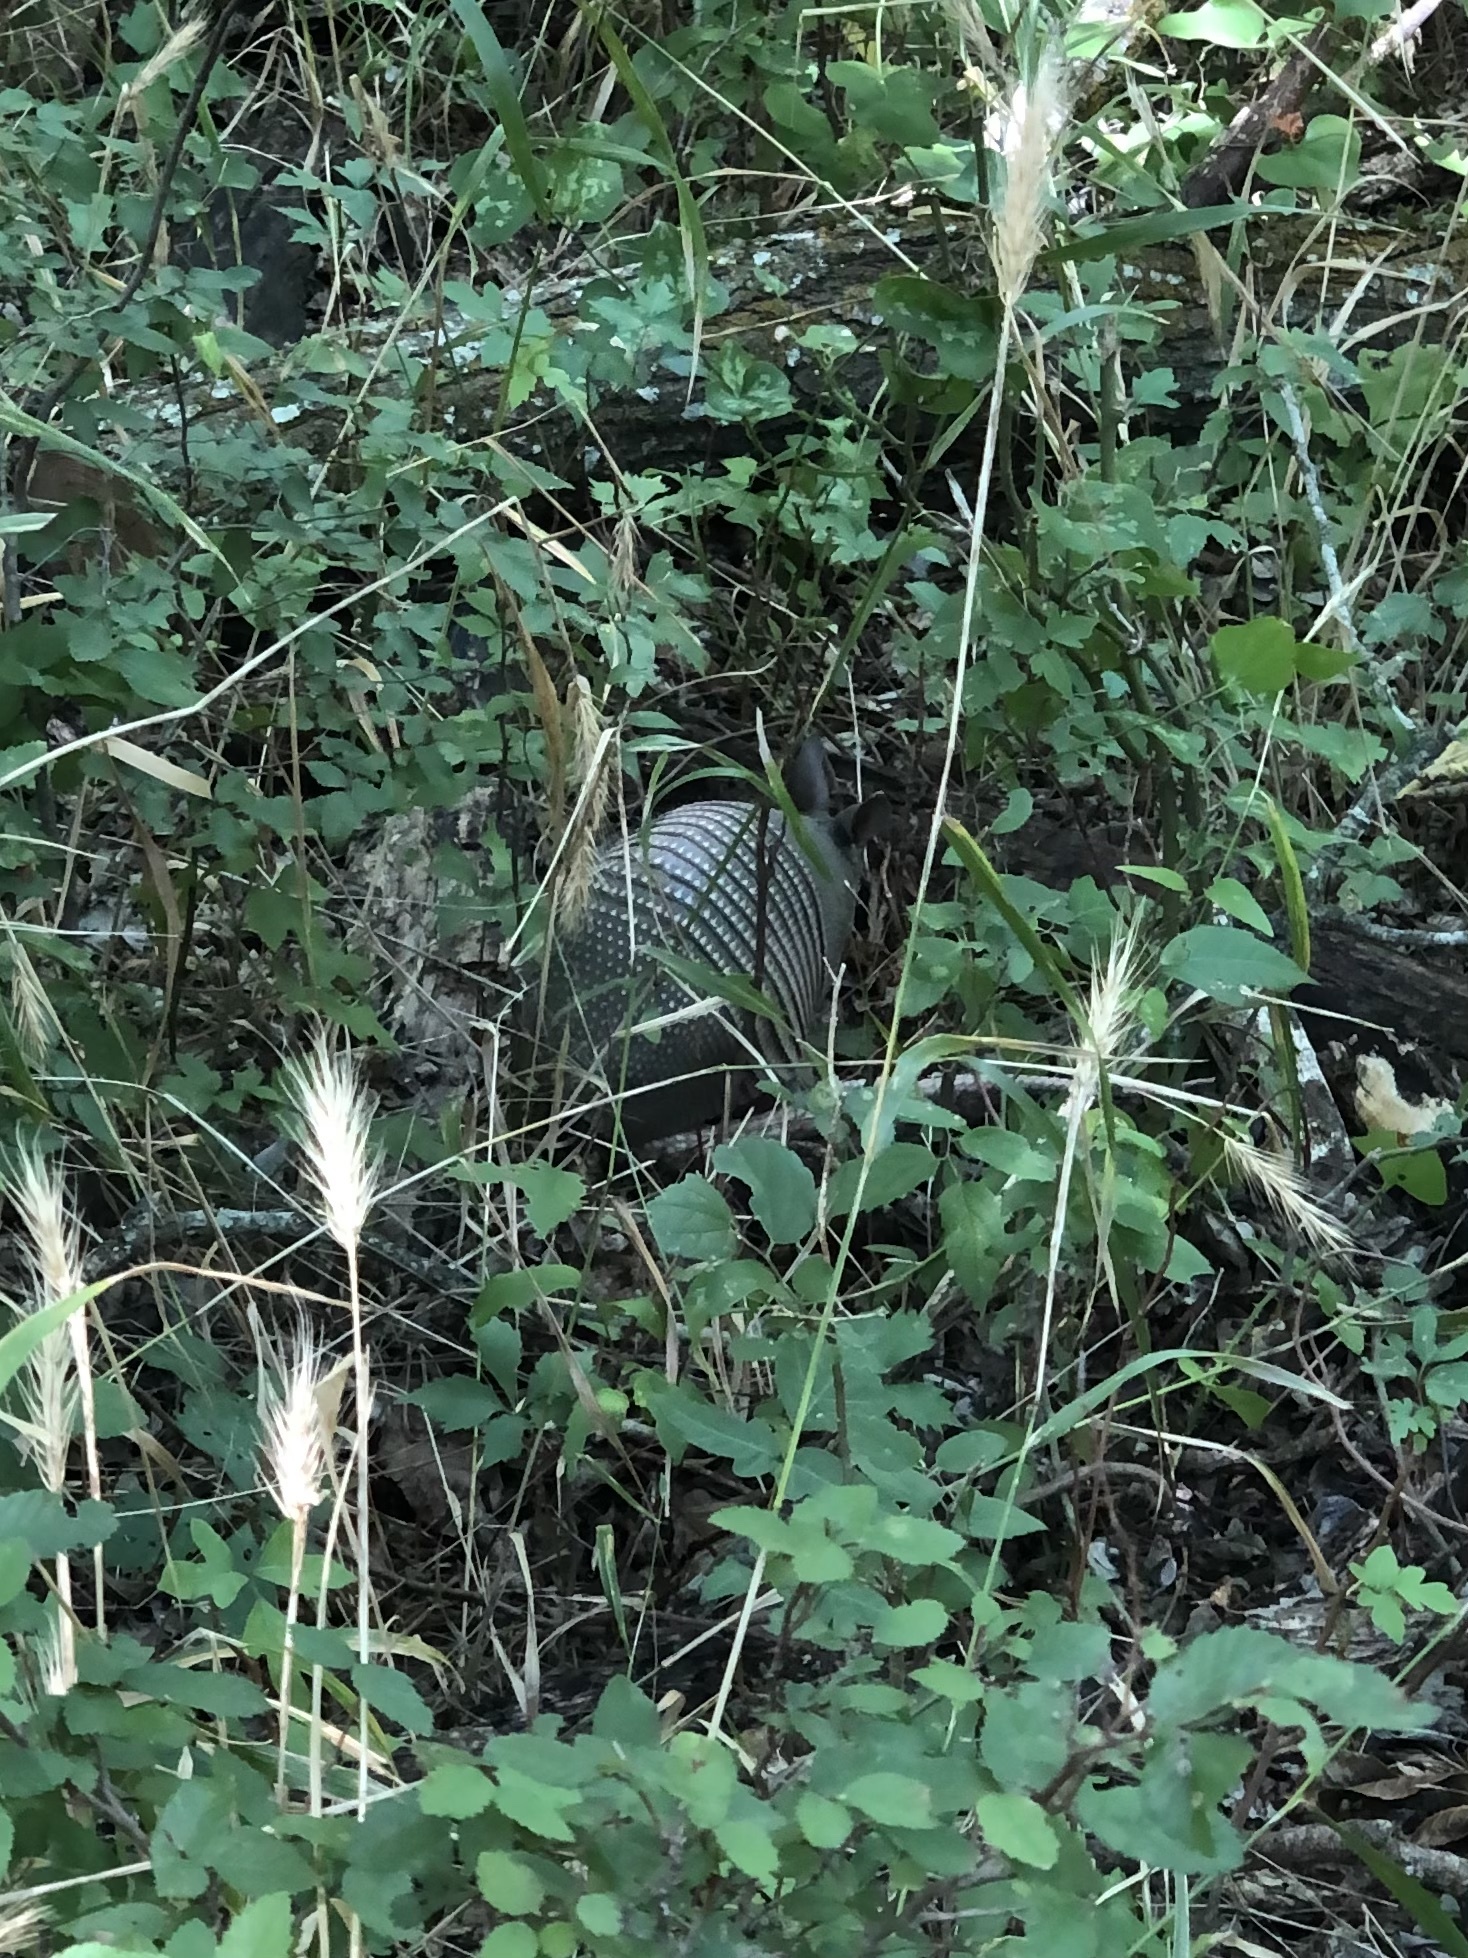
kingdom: Animalia
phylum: Chordata
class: Mammalia
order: Cingulata
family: Dasypodidae
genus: Dasypus
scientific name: Dasypus novemcinctus
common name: Nine-banded armadillo
